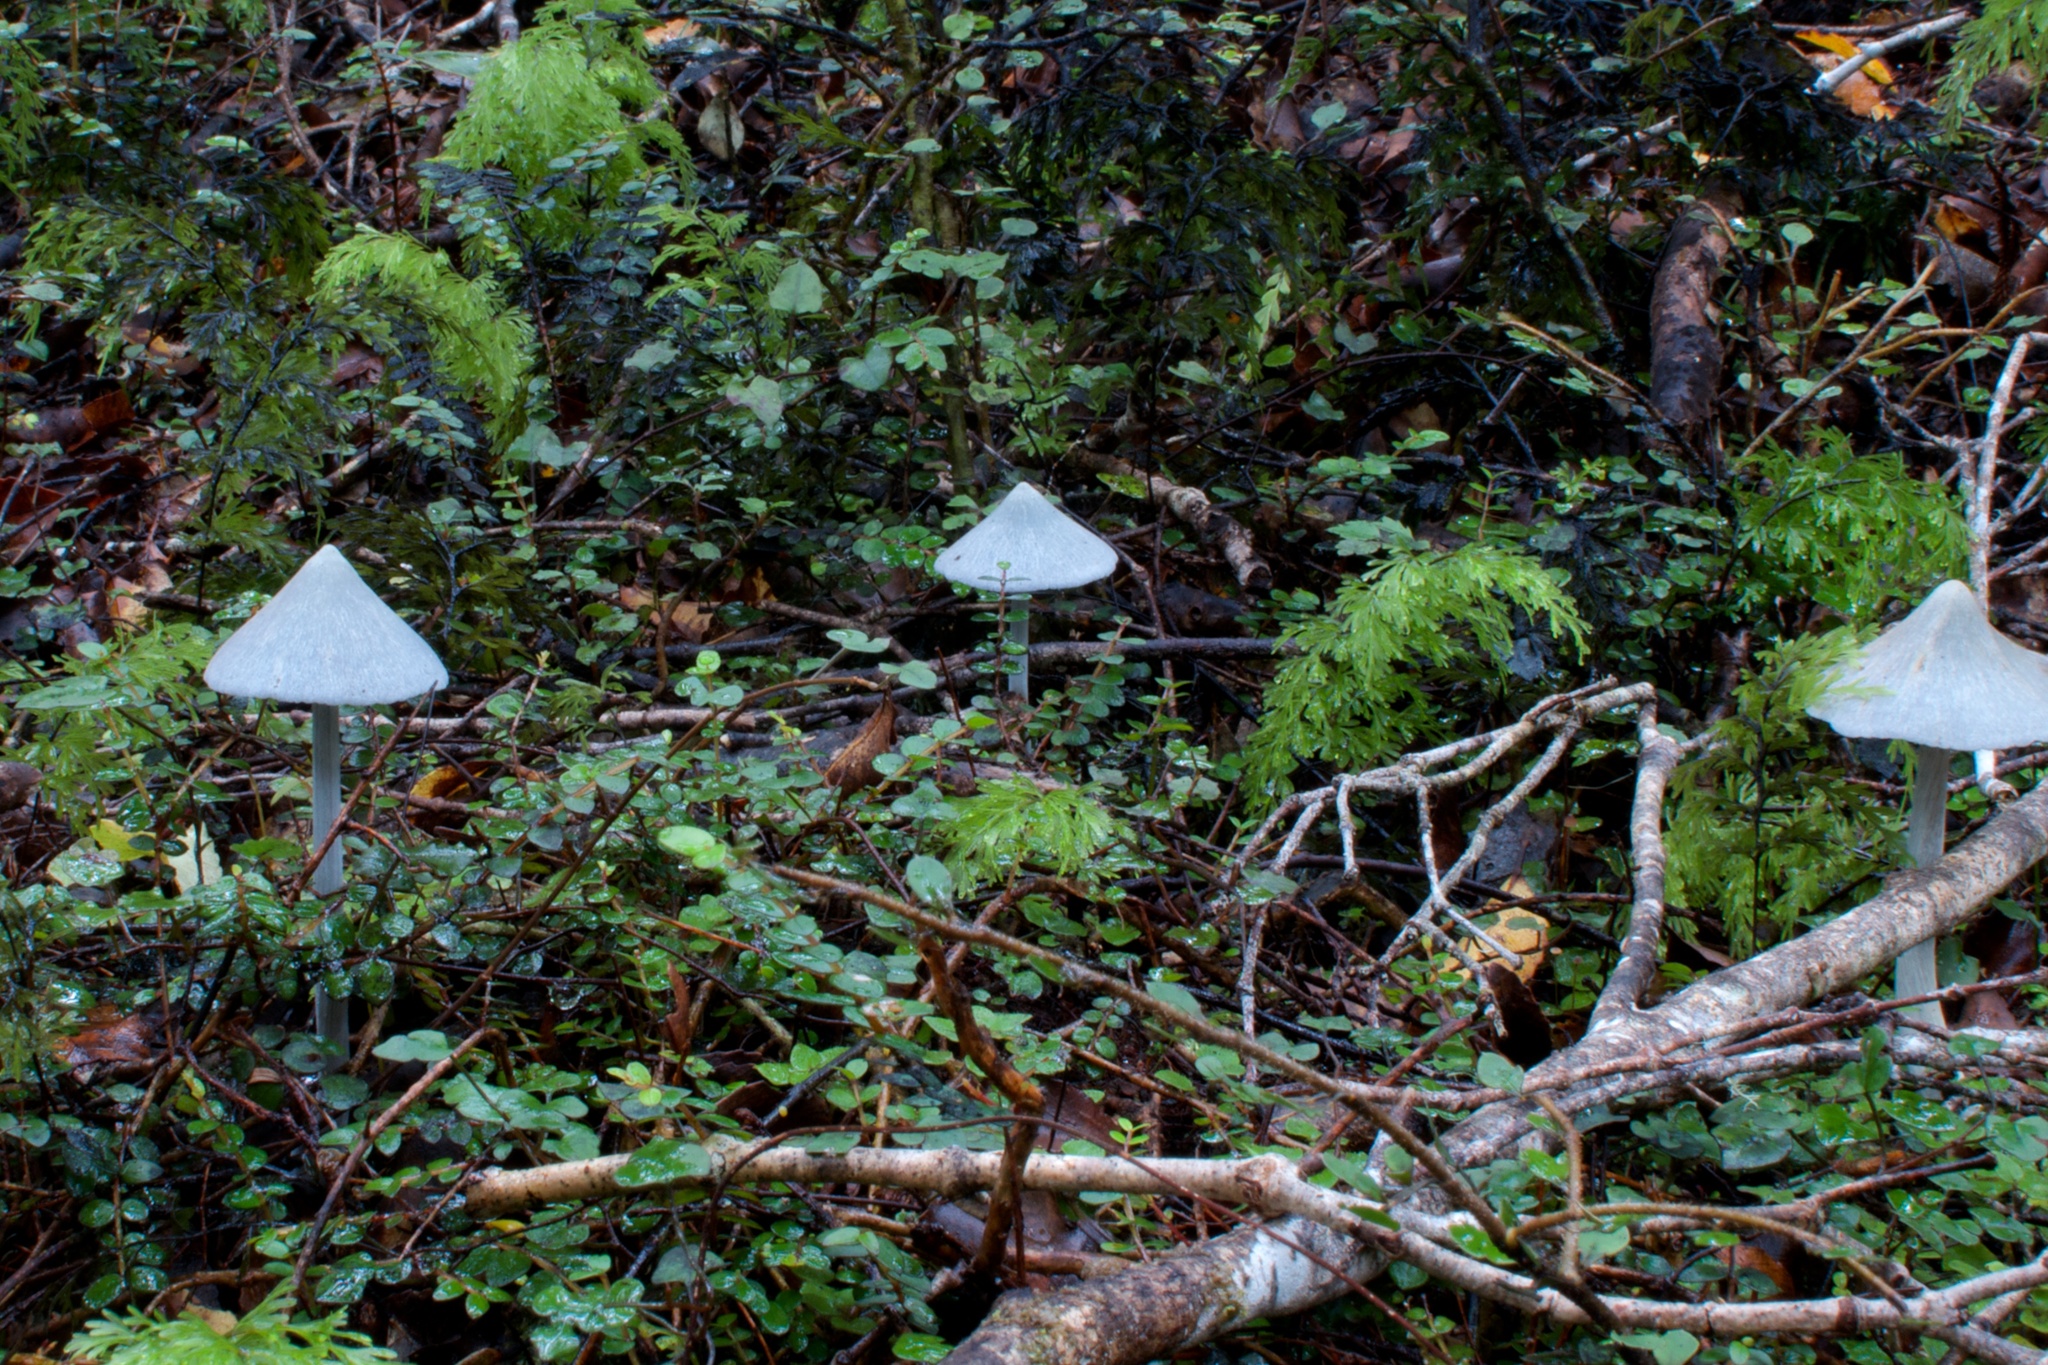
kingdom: Fungi
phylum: Basidiomycota
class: Agaricomycetes
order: Agaricales
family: Entolomataceae
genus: Entoloma
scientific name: Entoloma hochstetteri
